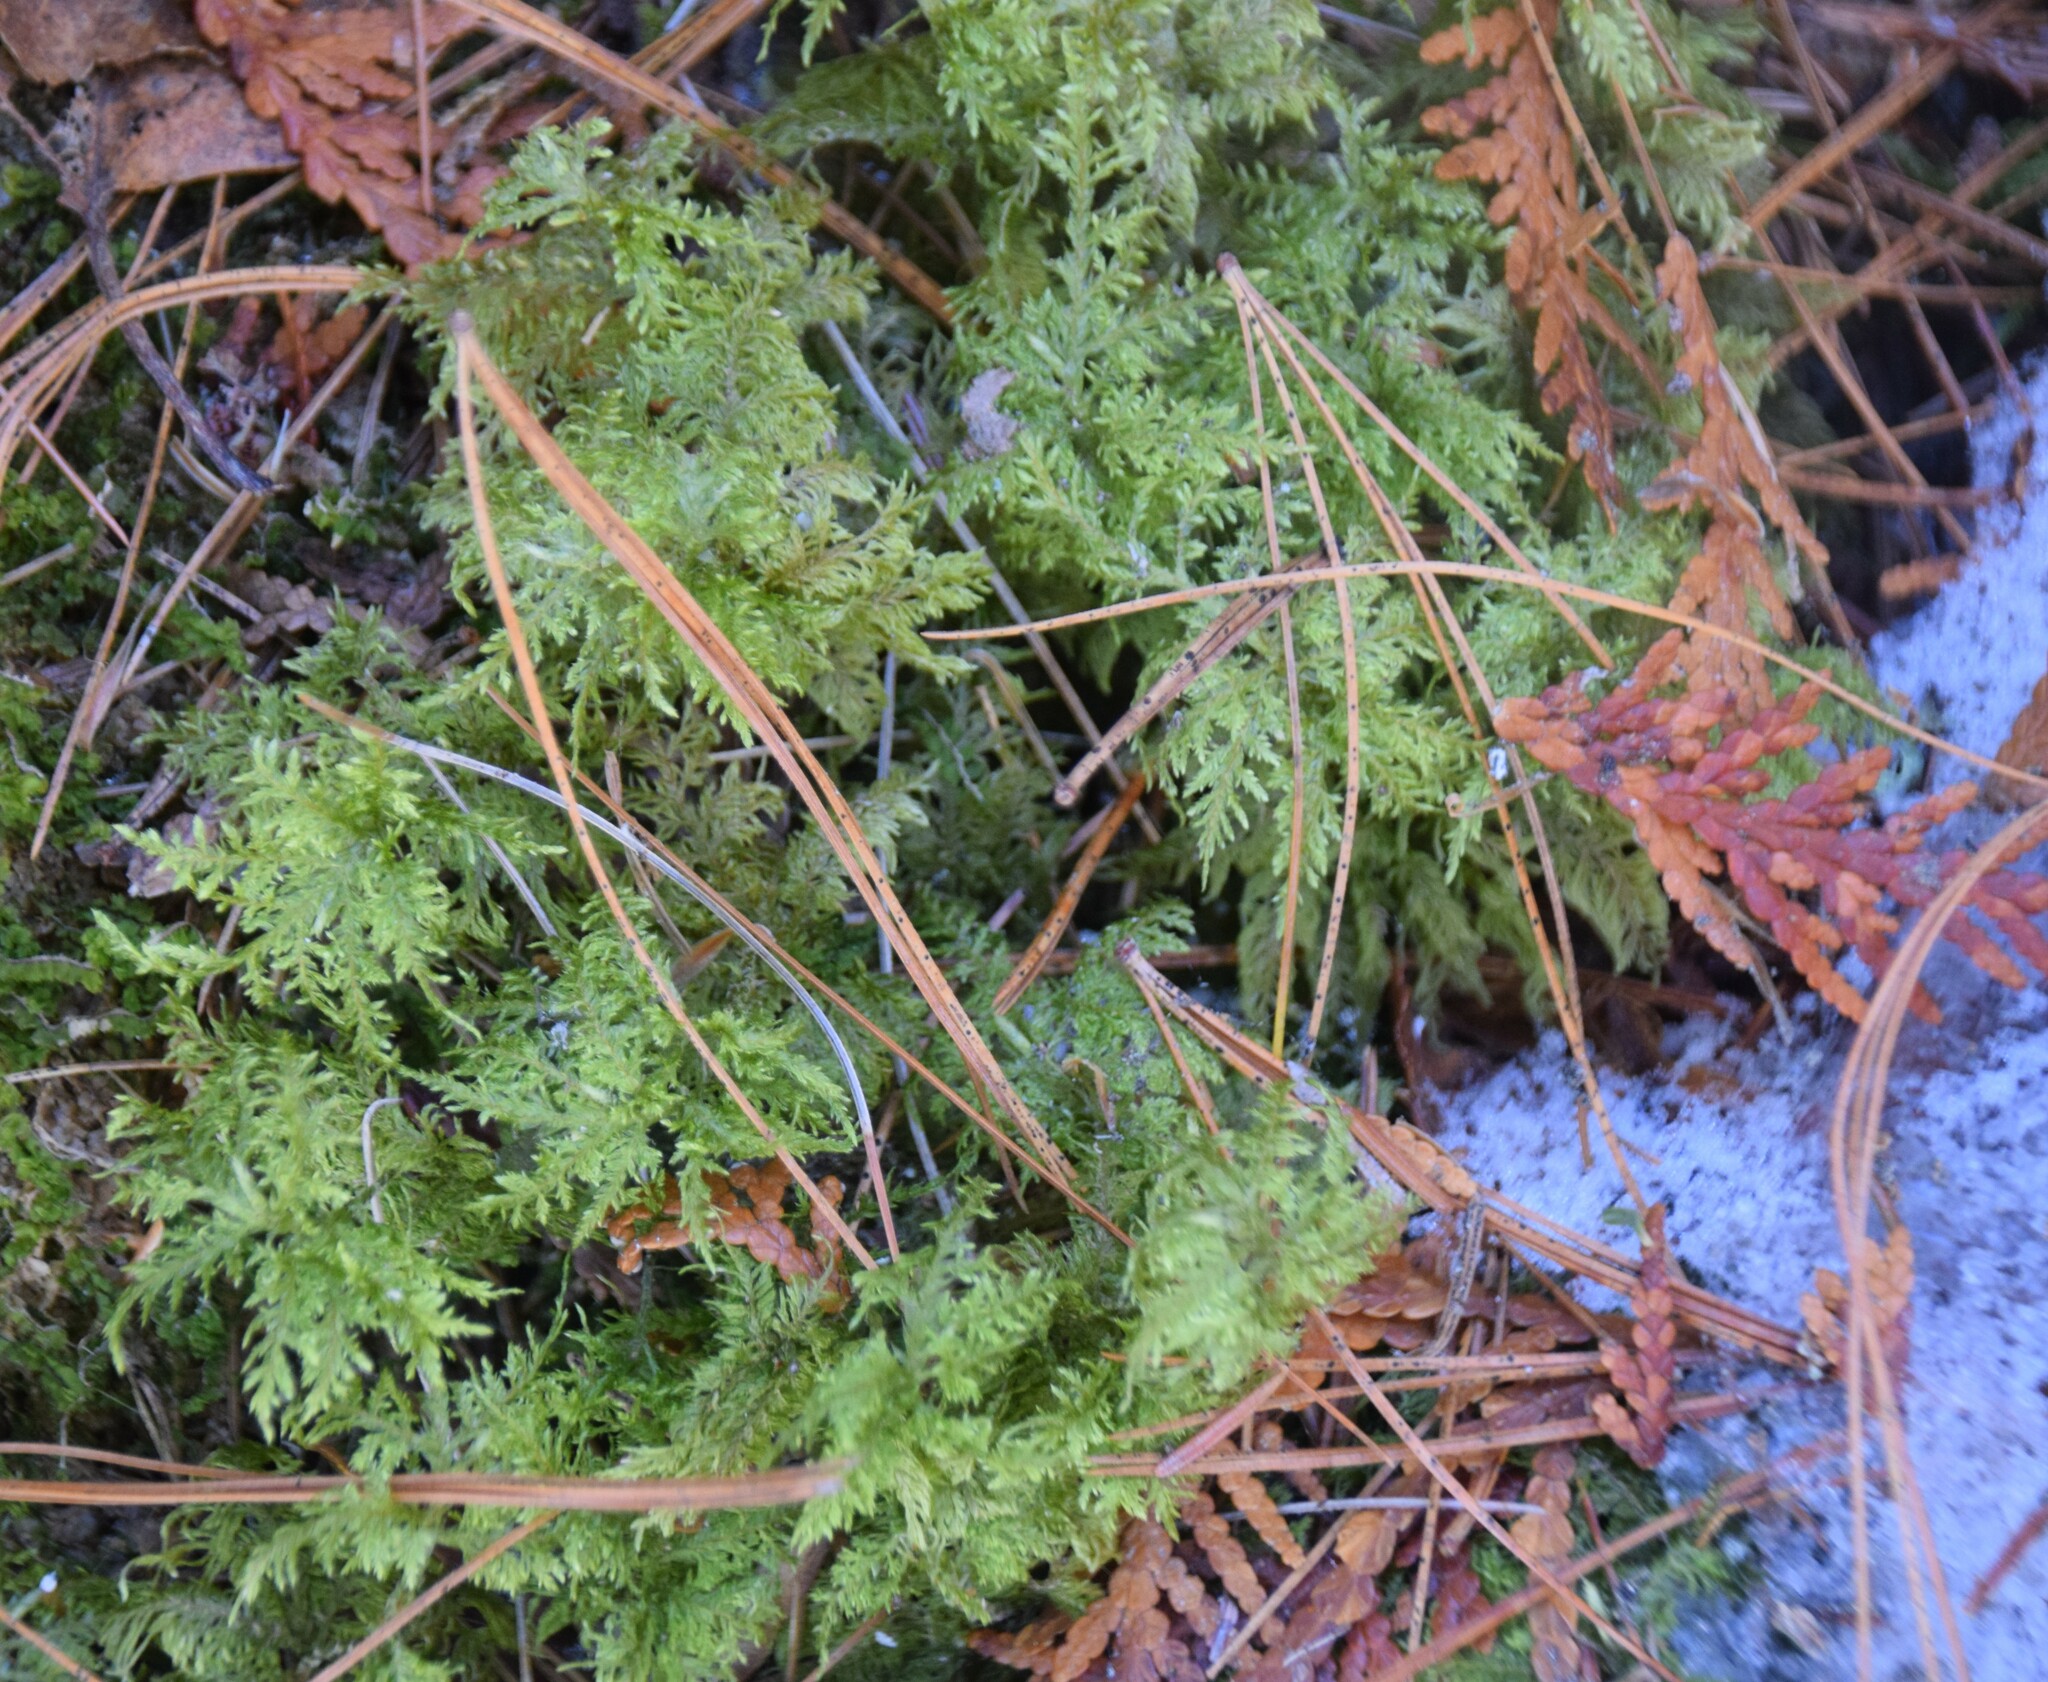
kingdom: Plantae
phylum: Bryophyta
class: Bryopsida
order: Hypnales
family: Hylocomiaceae
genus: Hylocomium
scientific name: Hylocomium splendens
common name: Stairstep moss
